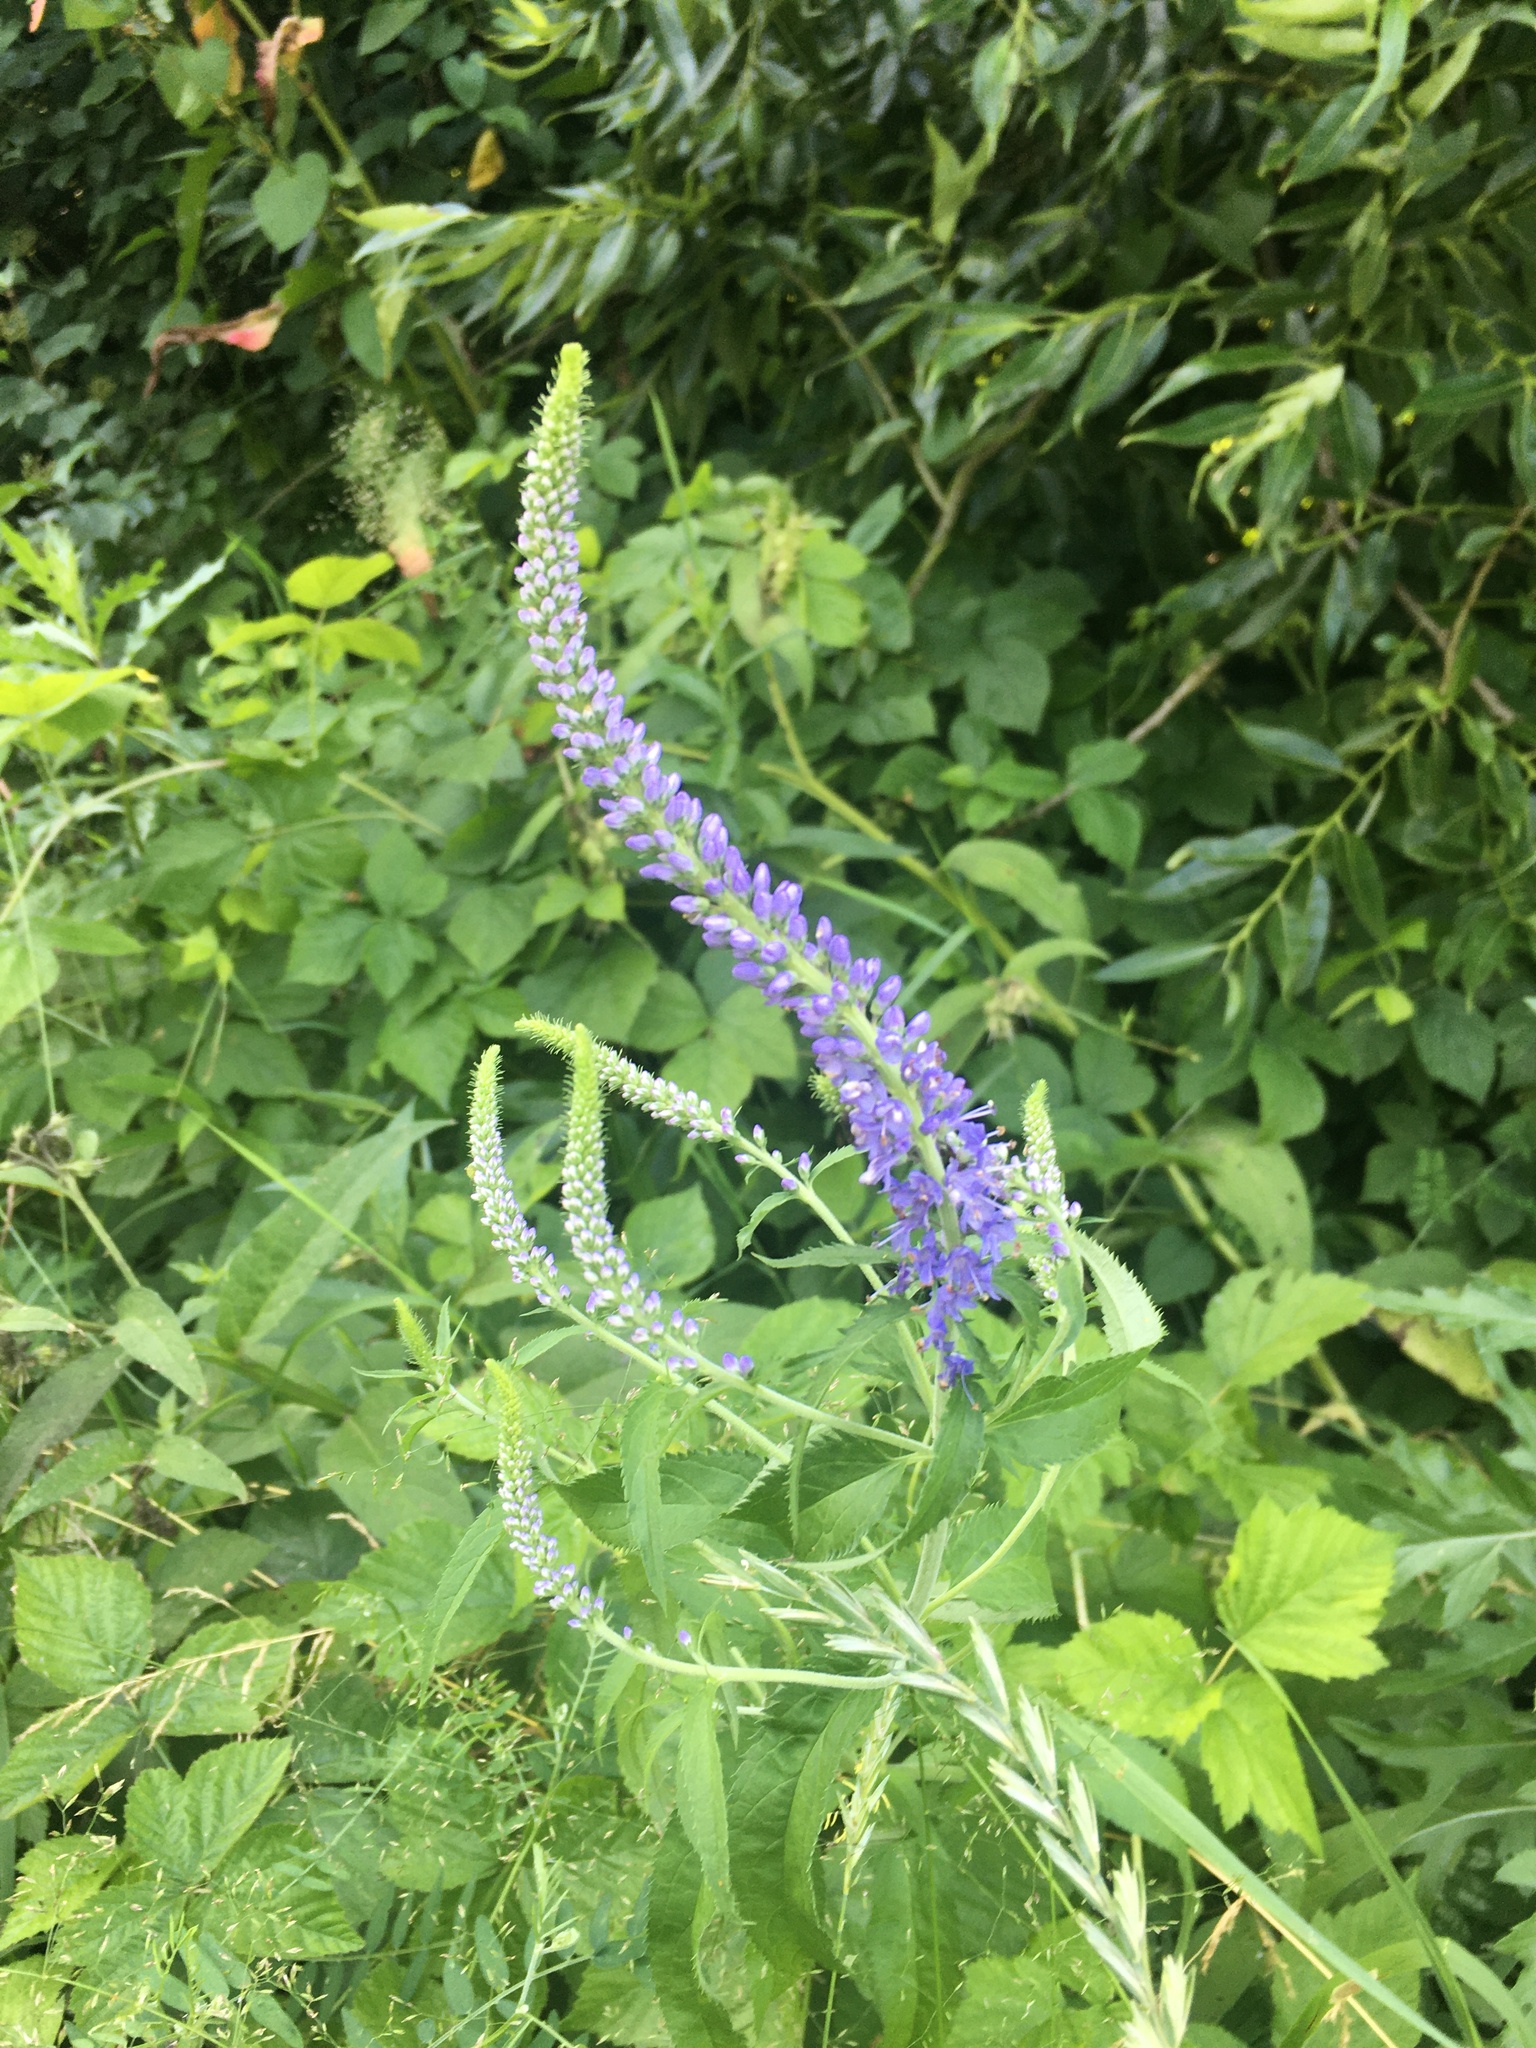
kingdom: Plantae
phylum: Tracheophyta
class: Magnoliopsida
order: Lamiales
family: Plantaginaceae
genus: Veronica
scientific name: Veronica longifolia
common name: Garden speedwell
